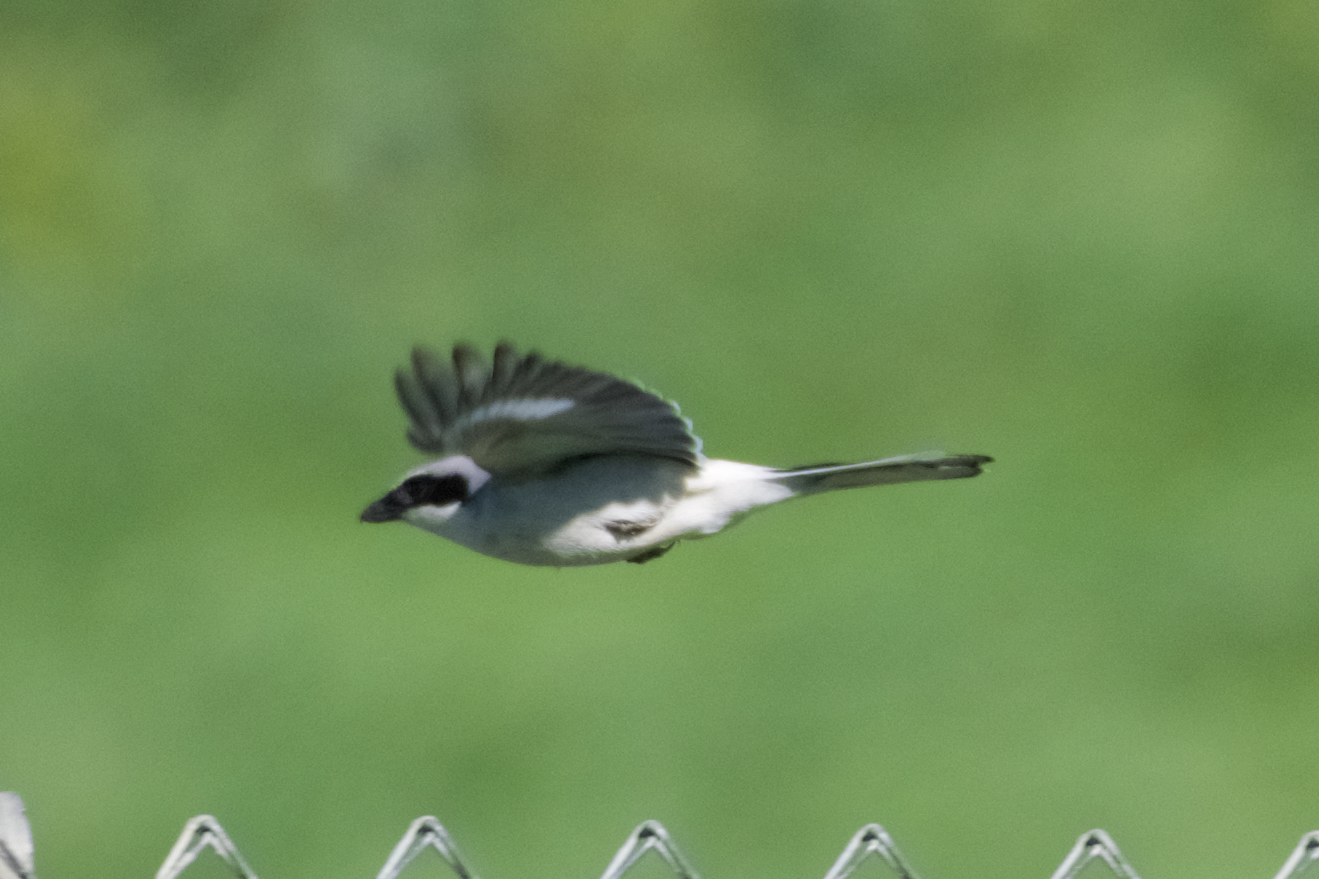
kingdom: Animalia
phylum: Chordata
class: Aves
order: Passeriformes
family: Laniidae
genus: Lanius
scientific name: Lanius ludovicianus
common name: Loggerhead shrike
